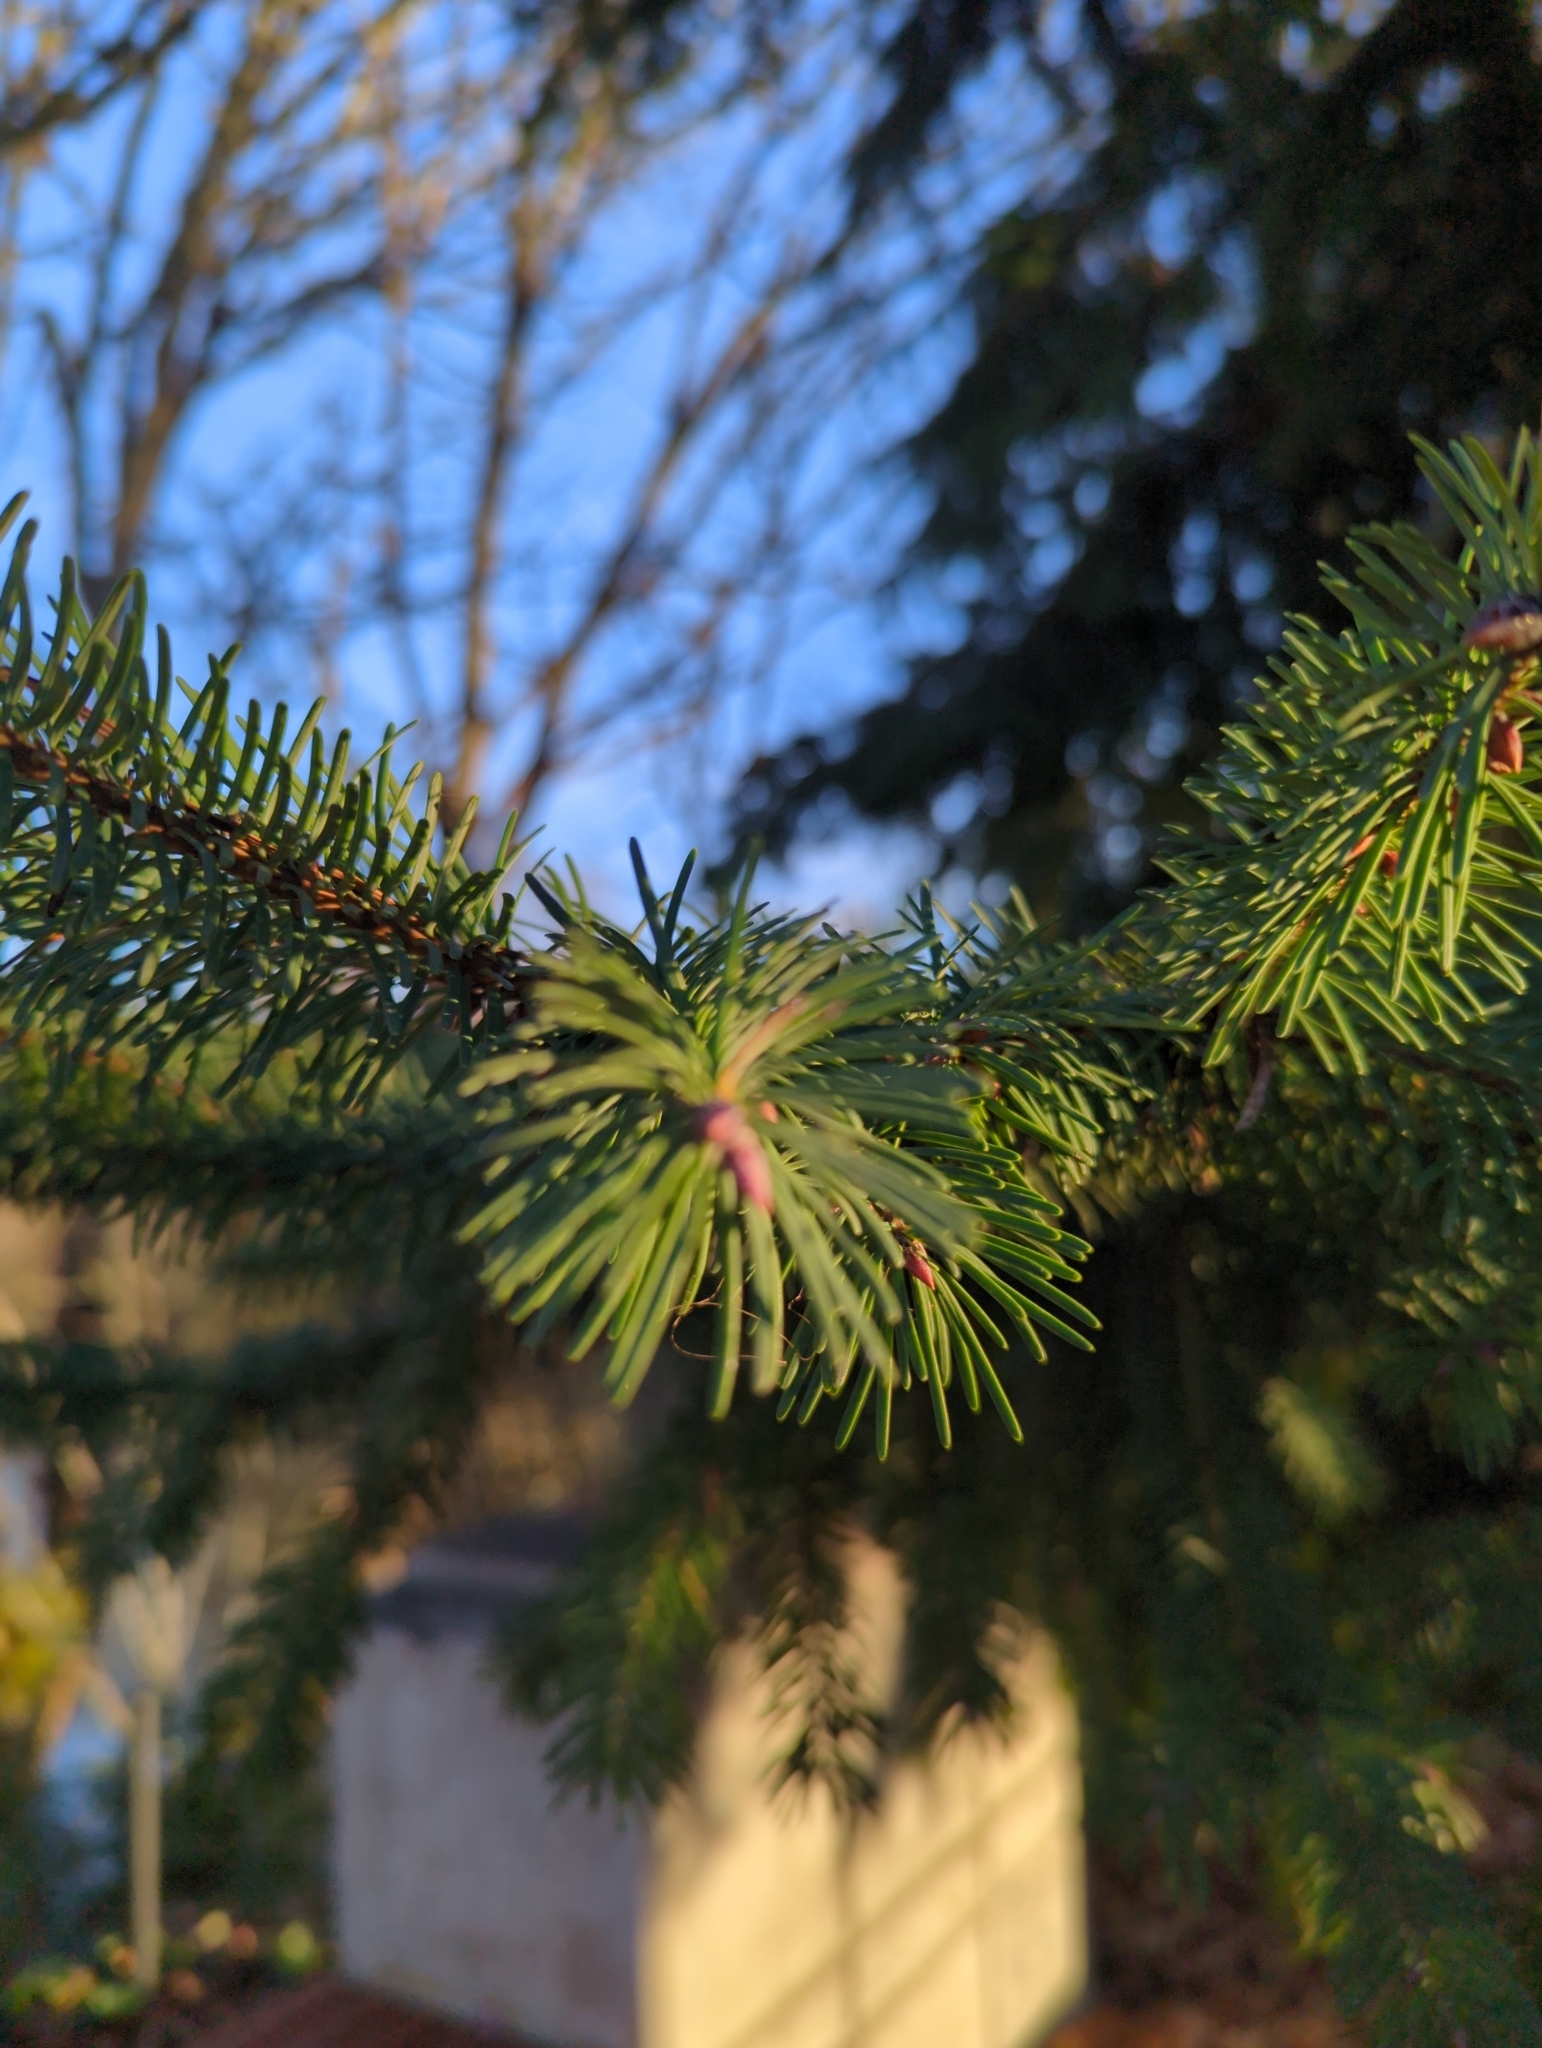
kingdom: Plantae
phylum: Tracheophyta
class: Pinopsida
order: Pinales
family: Pinaceae
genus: Pseudotsuga
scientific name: Pseudotsuga menziesii
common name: Douglas fir
